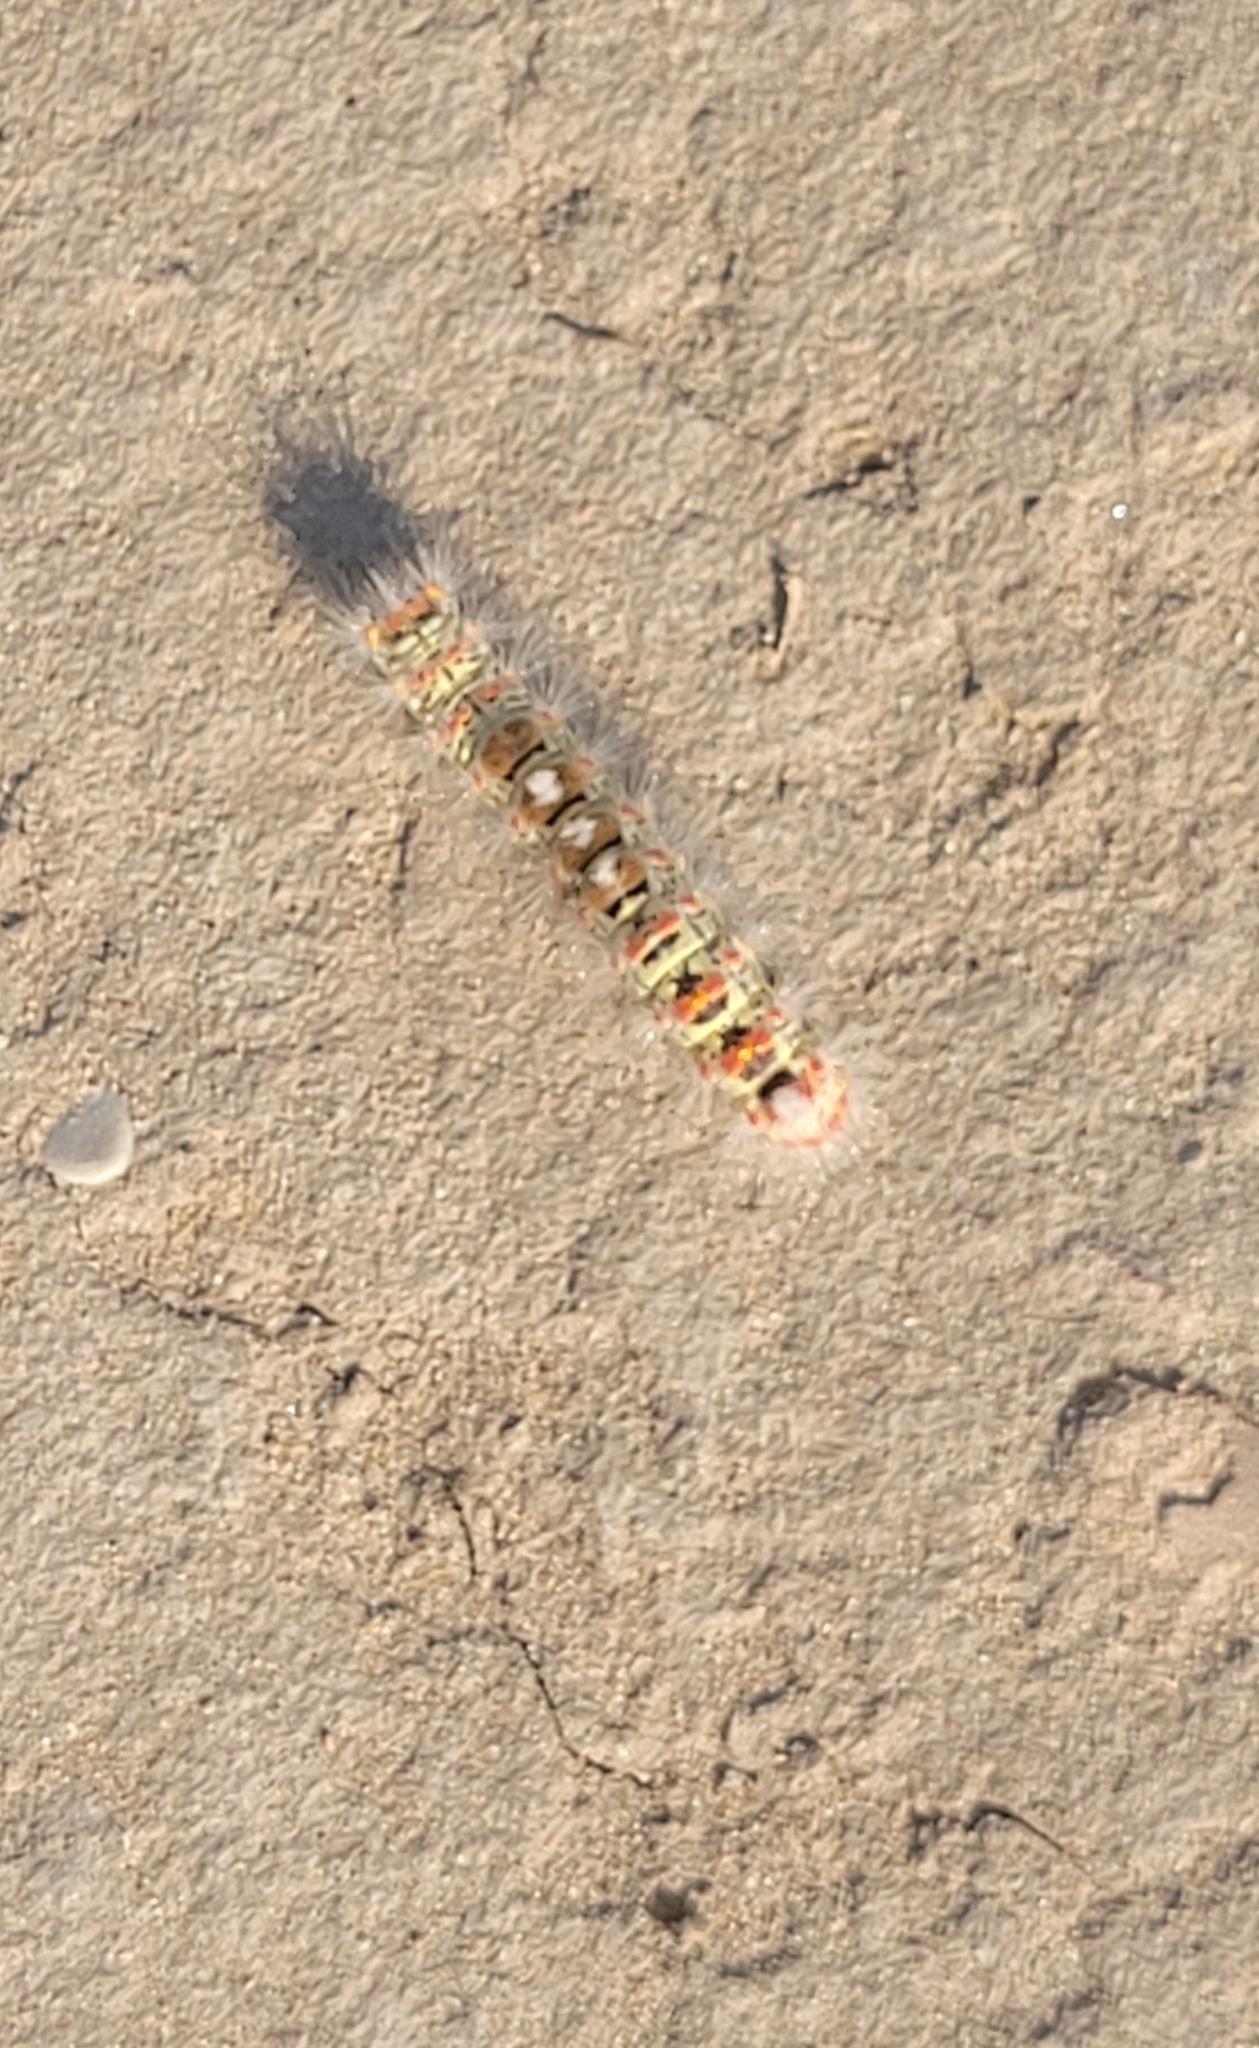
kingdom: Animalia
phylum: Arthropoda
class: Insecta
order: Lepidoptera
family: Erebidae
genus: Orgyia
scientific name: Orgyia dubia
